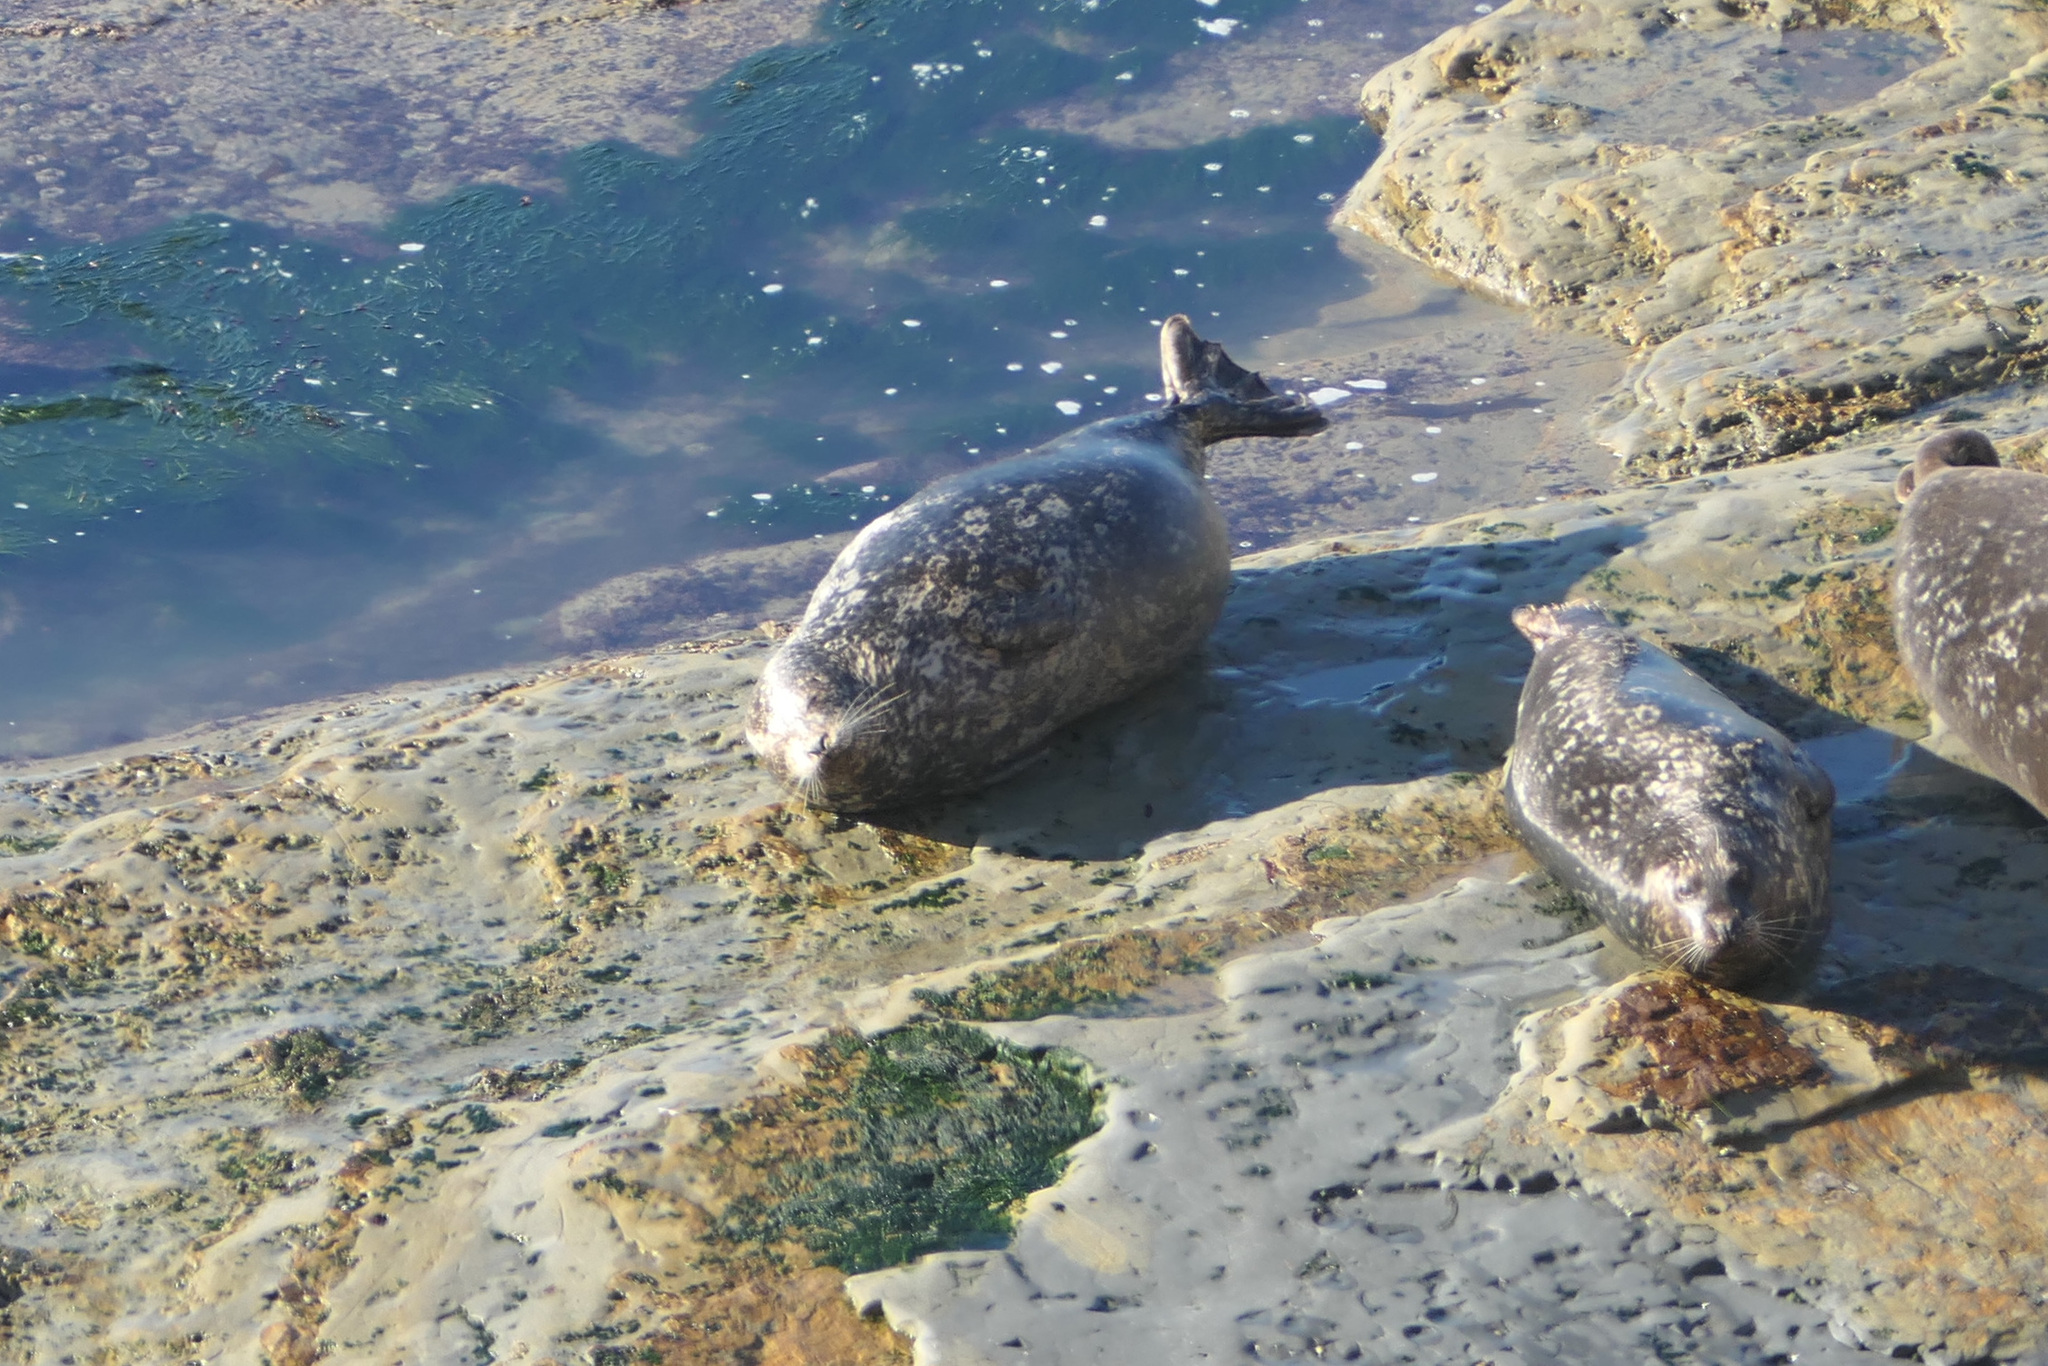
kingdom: Animalia
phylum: Chordata
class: Mammalia
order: Carnivora
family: Phocidae
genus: Phoca
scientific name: Phoca vitulina
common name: Harbor seal
